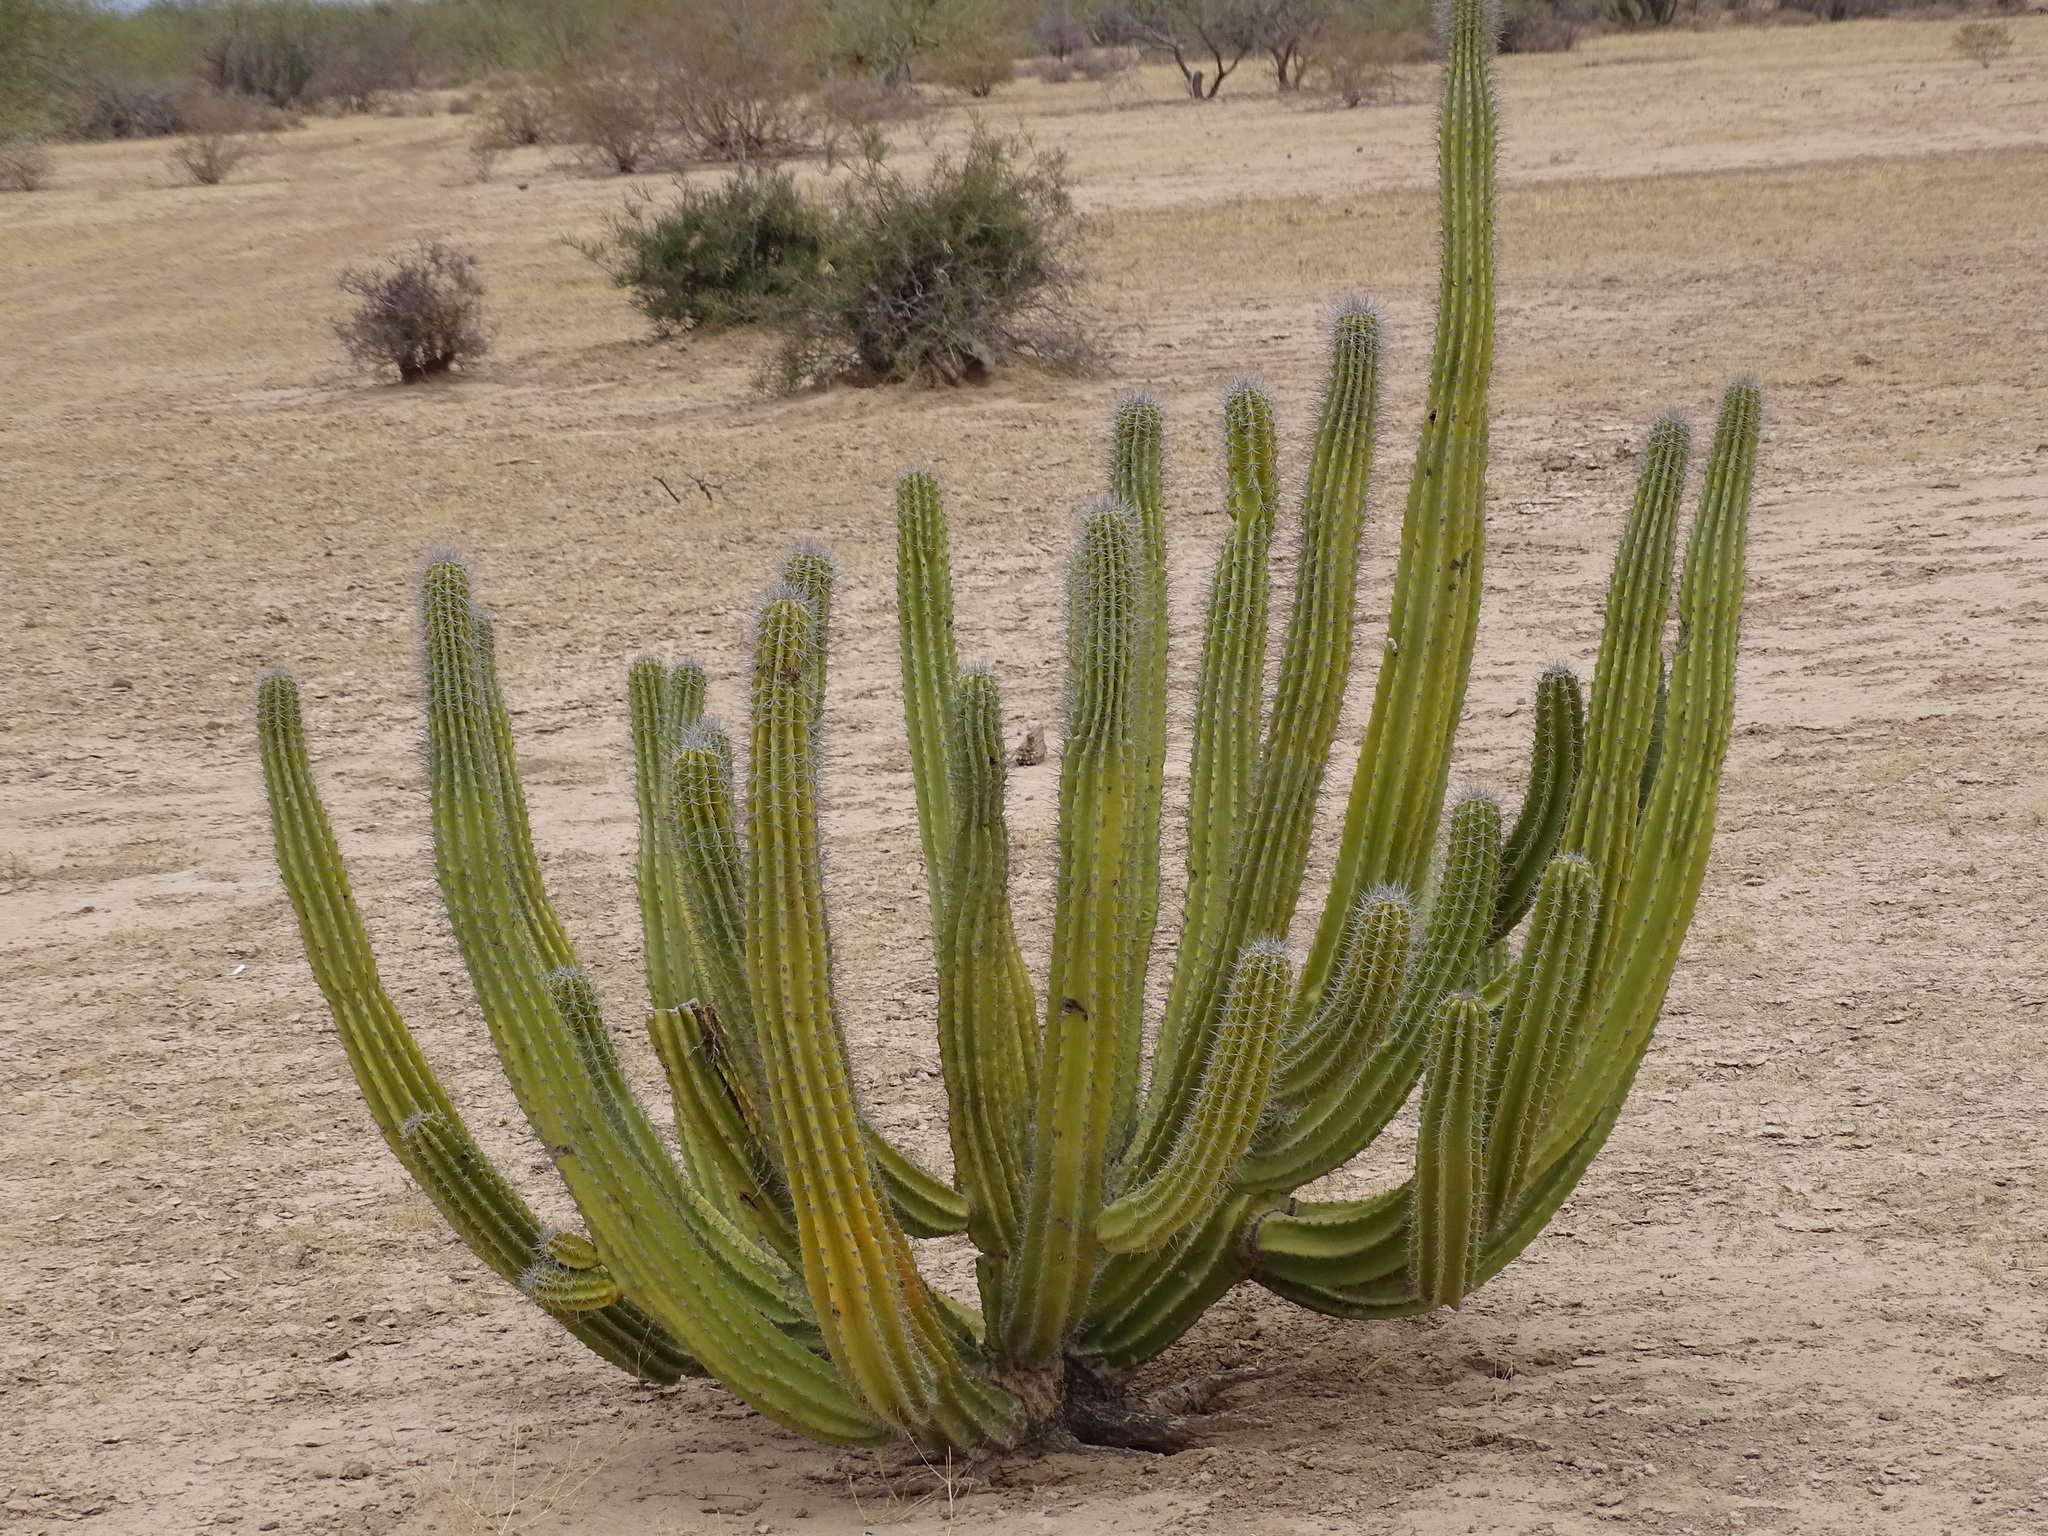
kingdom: Plantae
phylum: Tracheophyta
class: Magnoliopsida
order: Caryophyllales
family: Cactaceae
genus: Pachycereus
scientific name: Pachycereus schottii
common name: Senita cactus
